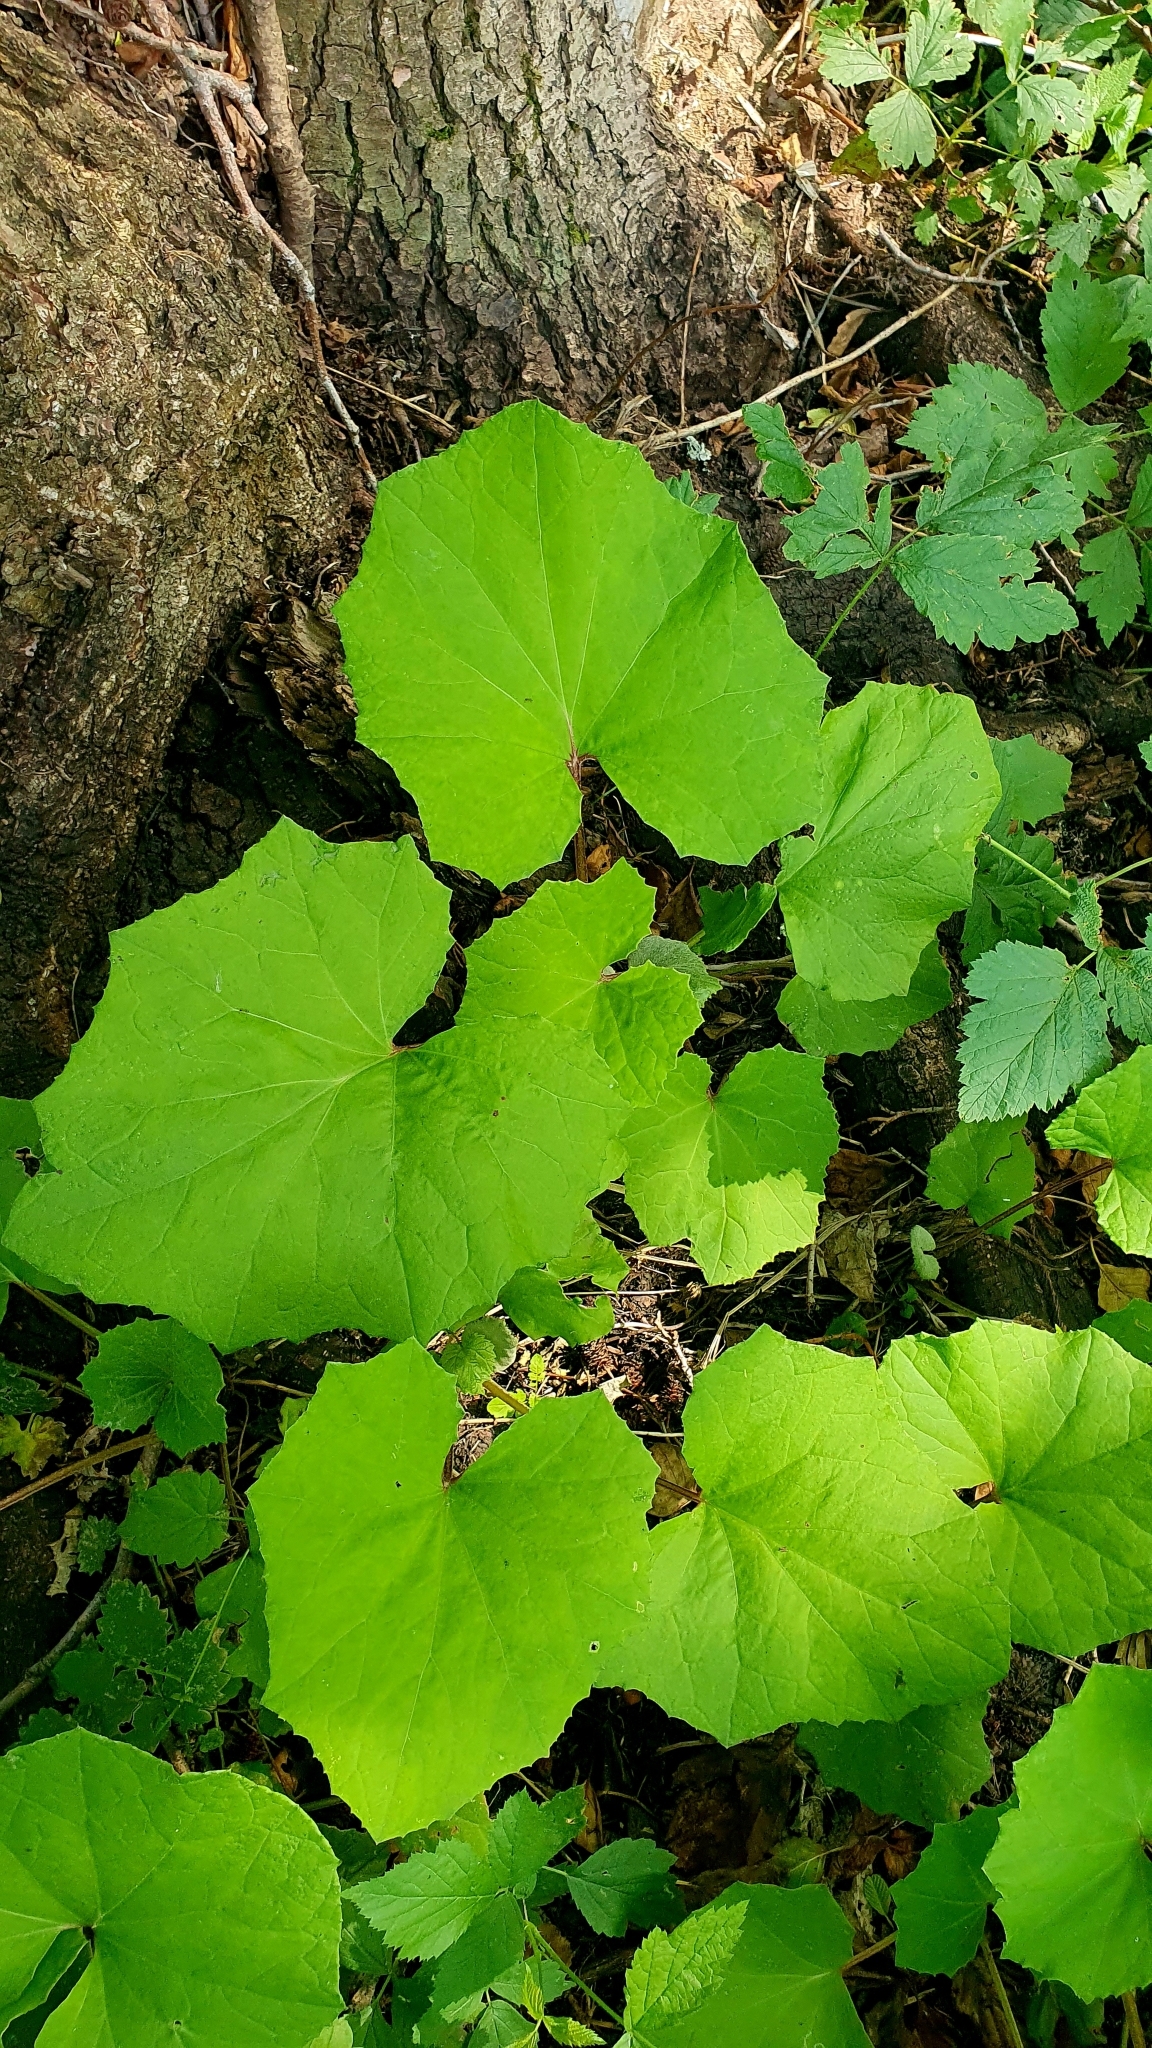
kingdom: Plantae
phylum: Tracheophyta
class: Magnoliopsida
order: Asterales
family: Asteraceae
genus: Tussilago
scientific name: Tussilago farfara
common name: Coltsfoot
